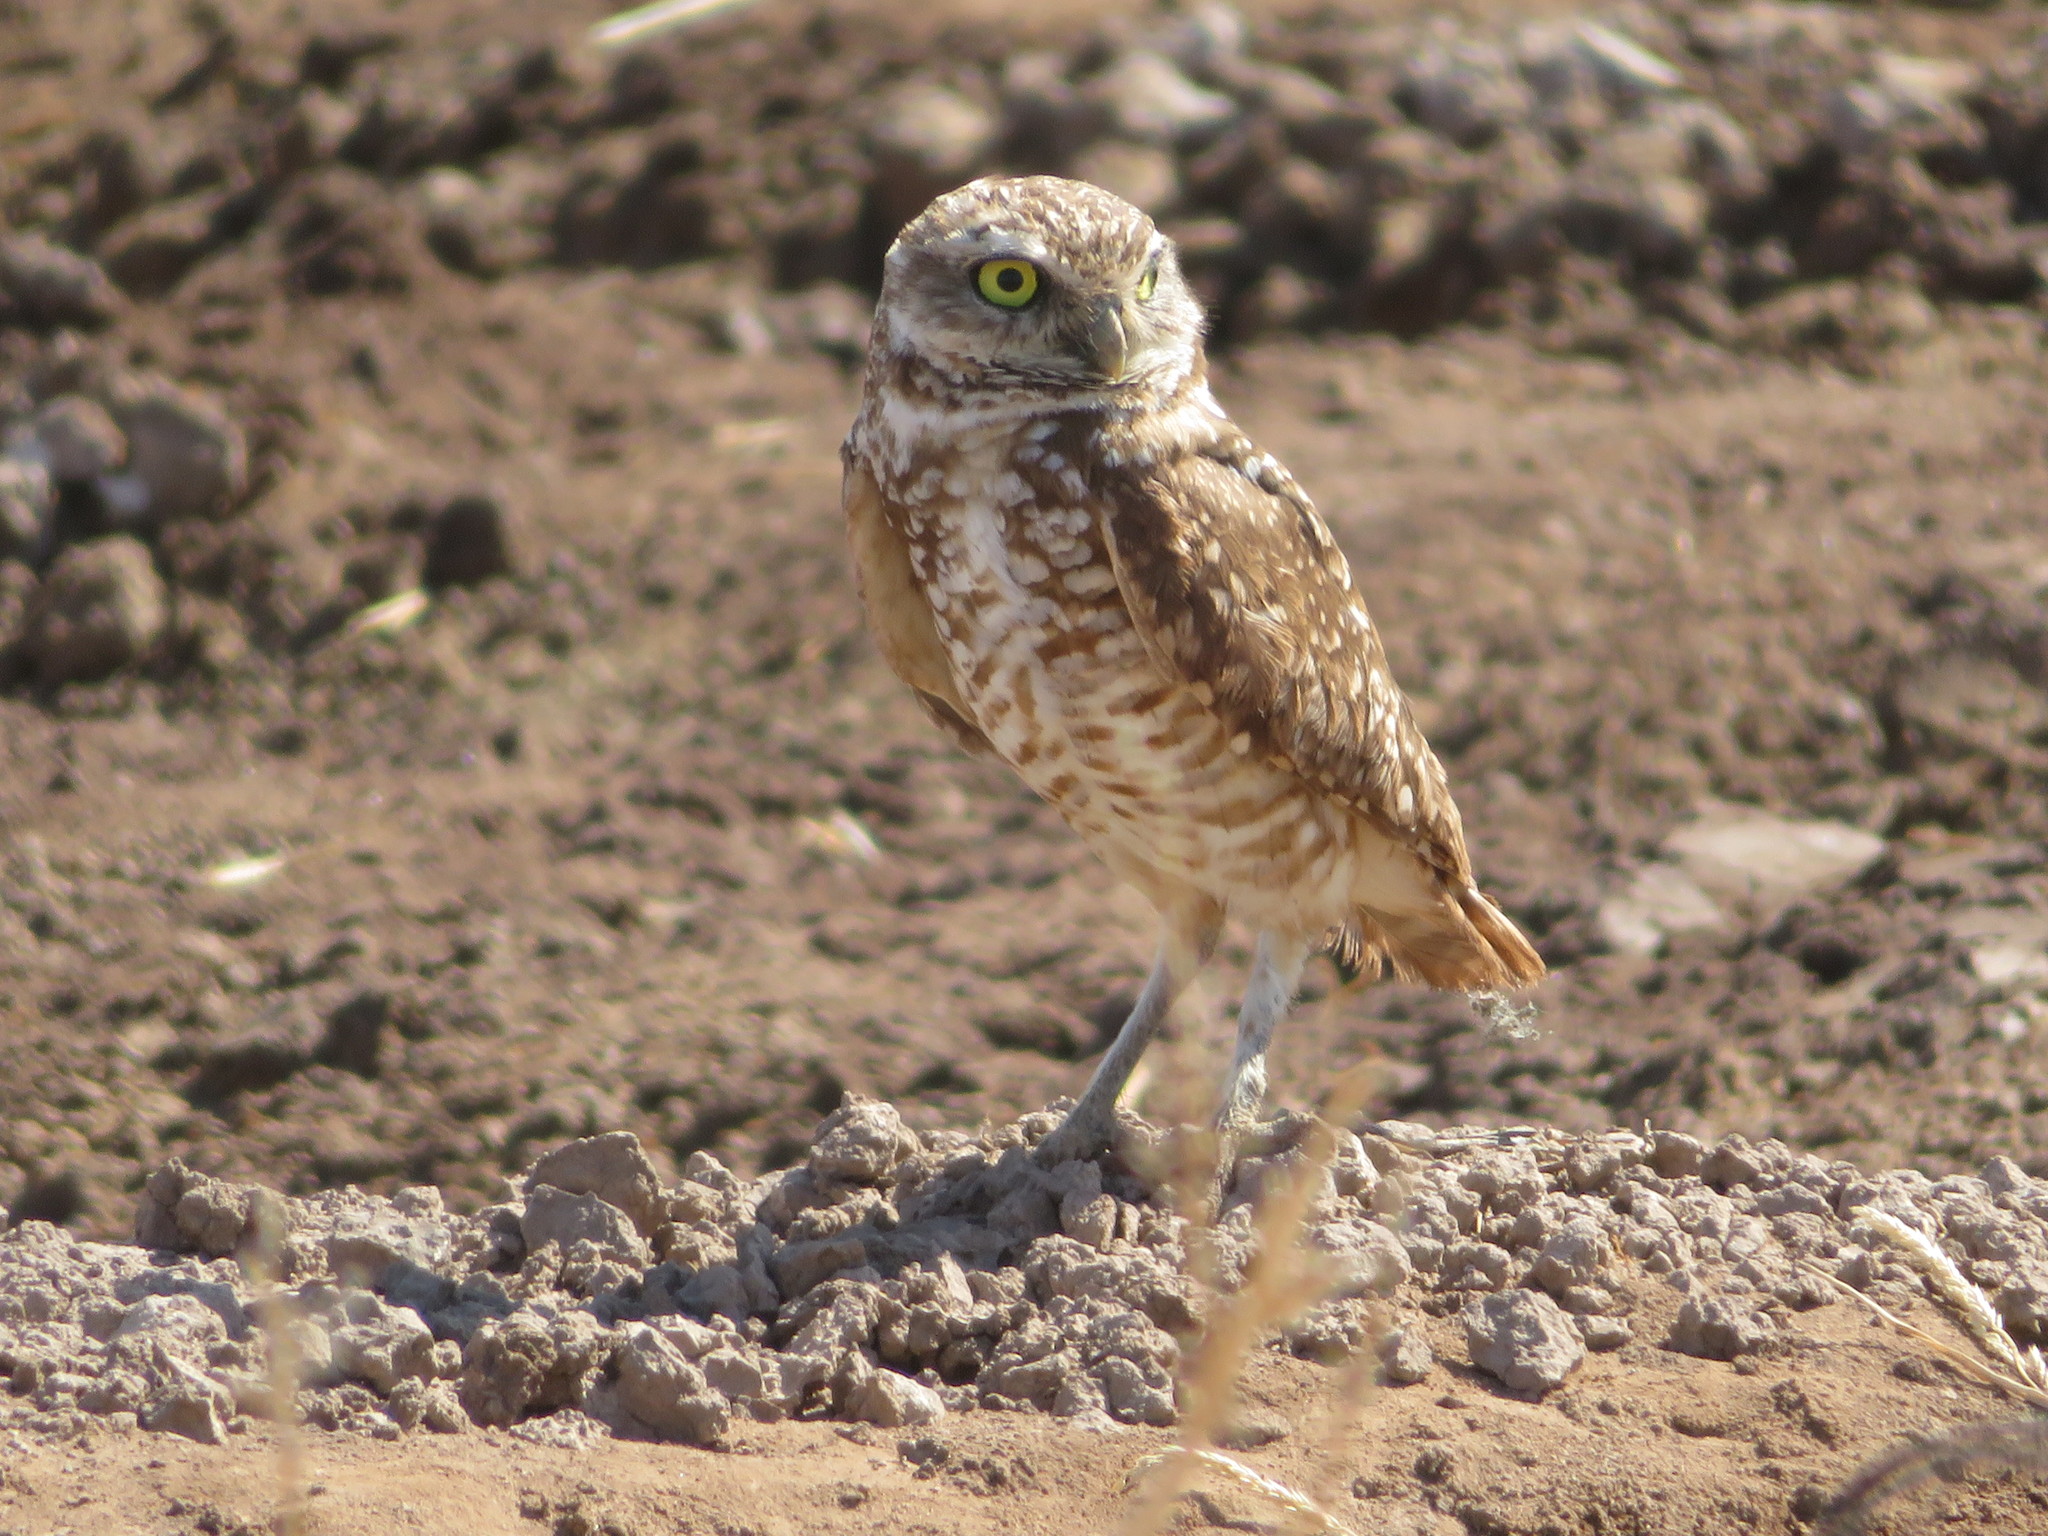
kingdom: Animalia
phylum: Chordata
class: Aves
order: Strigiformes
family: Strigidae
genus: Athene
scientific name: Athene cunicularia
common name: Burrowing owl
